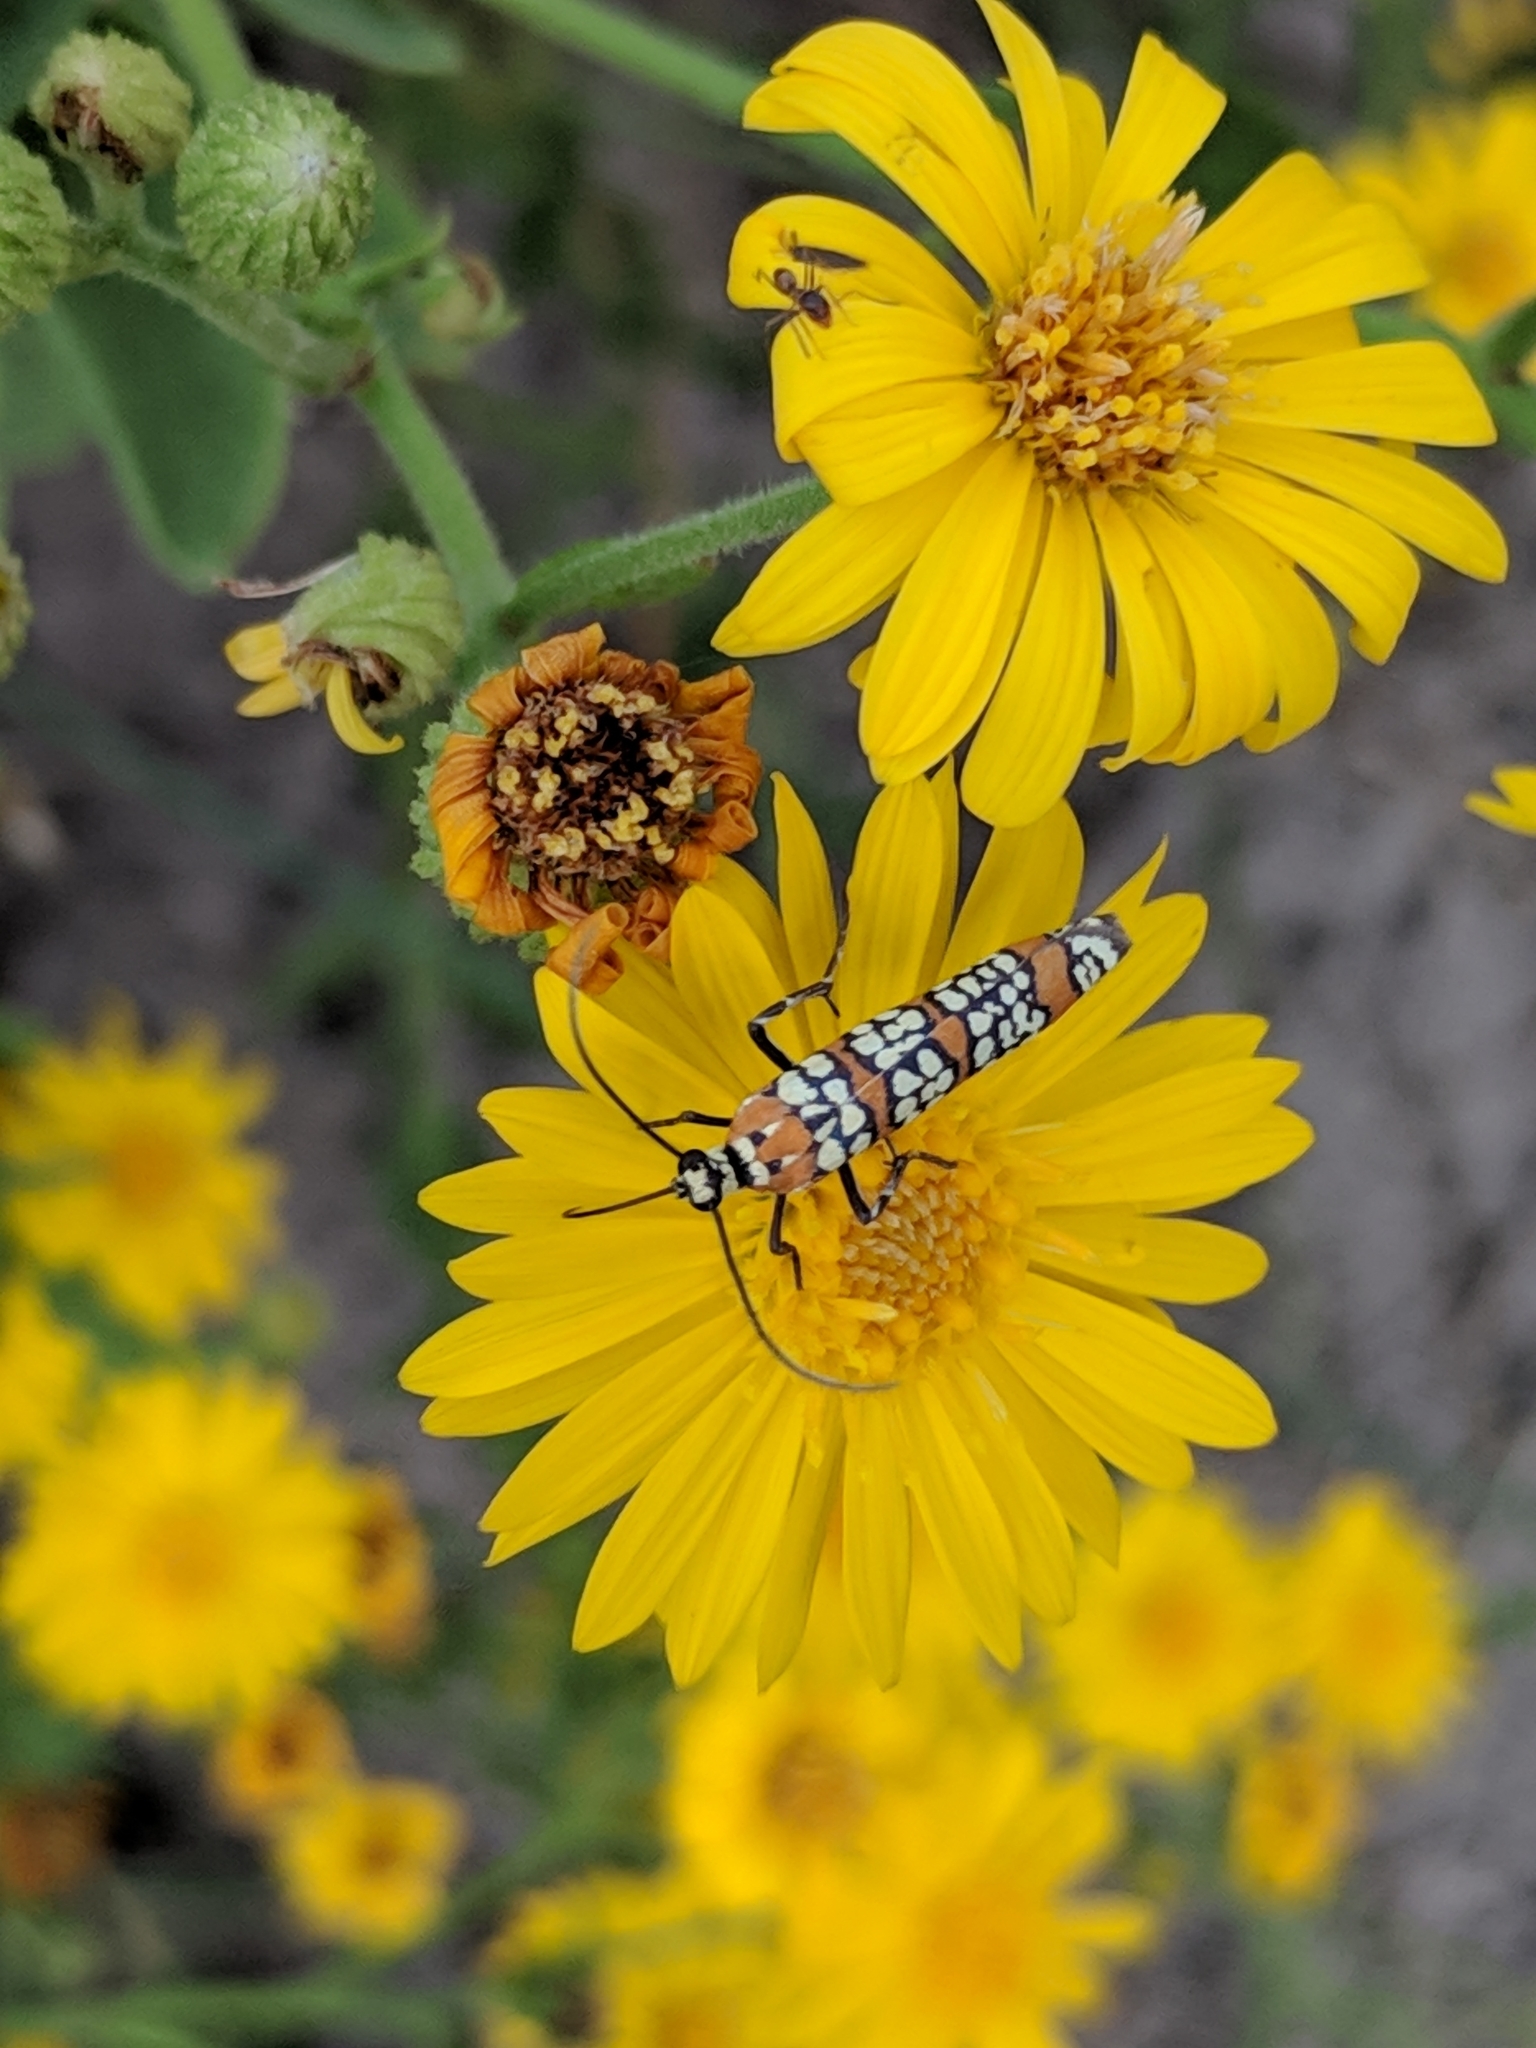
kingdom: Animalia
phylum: Arthropoda
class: Insecta
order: Lepidoptera
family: Attevidae
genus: Atteva
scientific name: Atteva punctella
